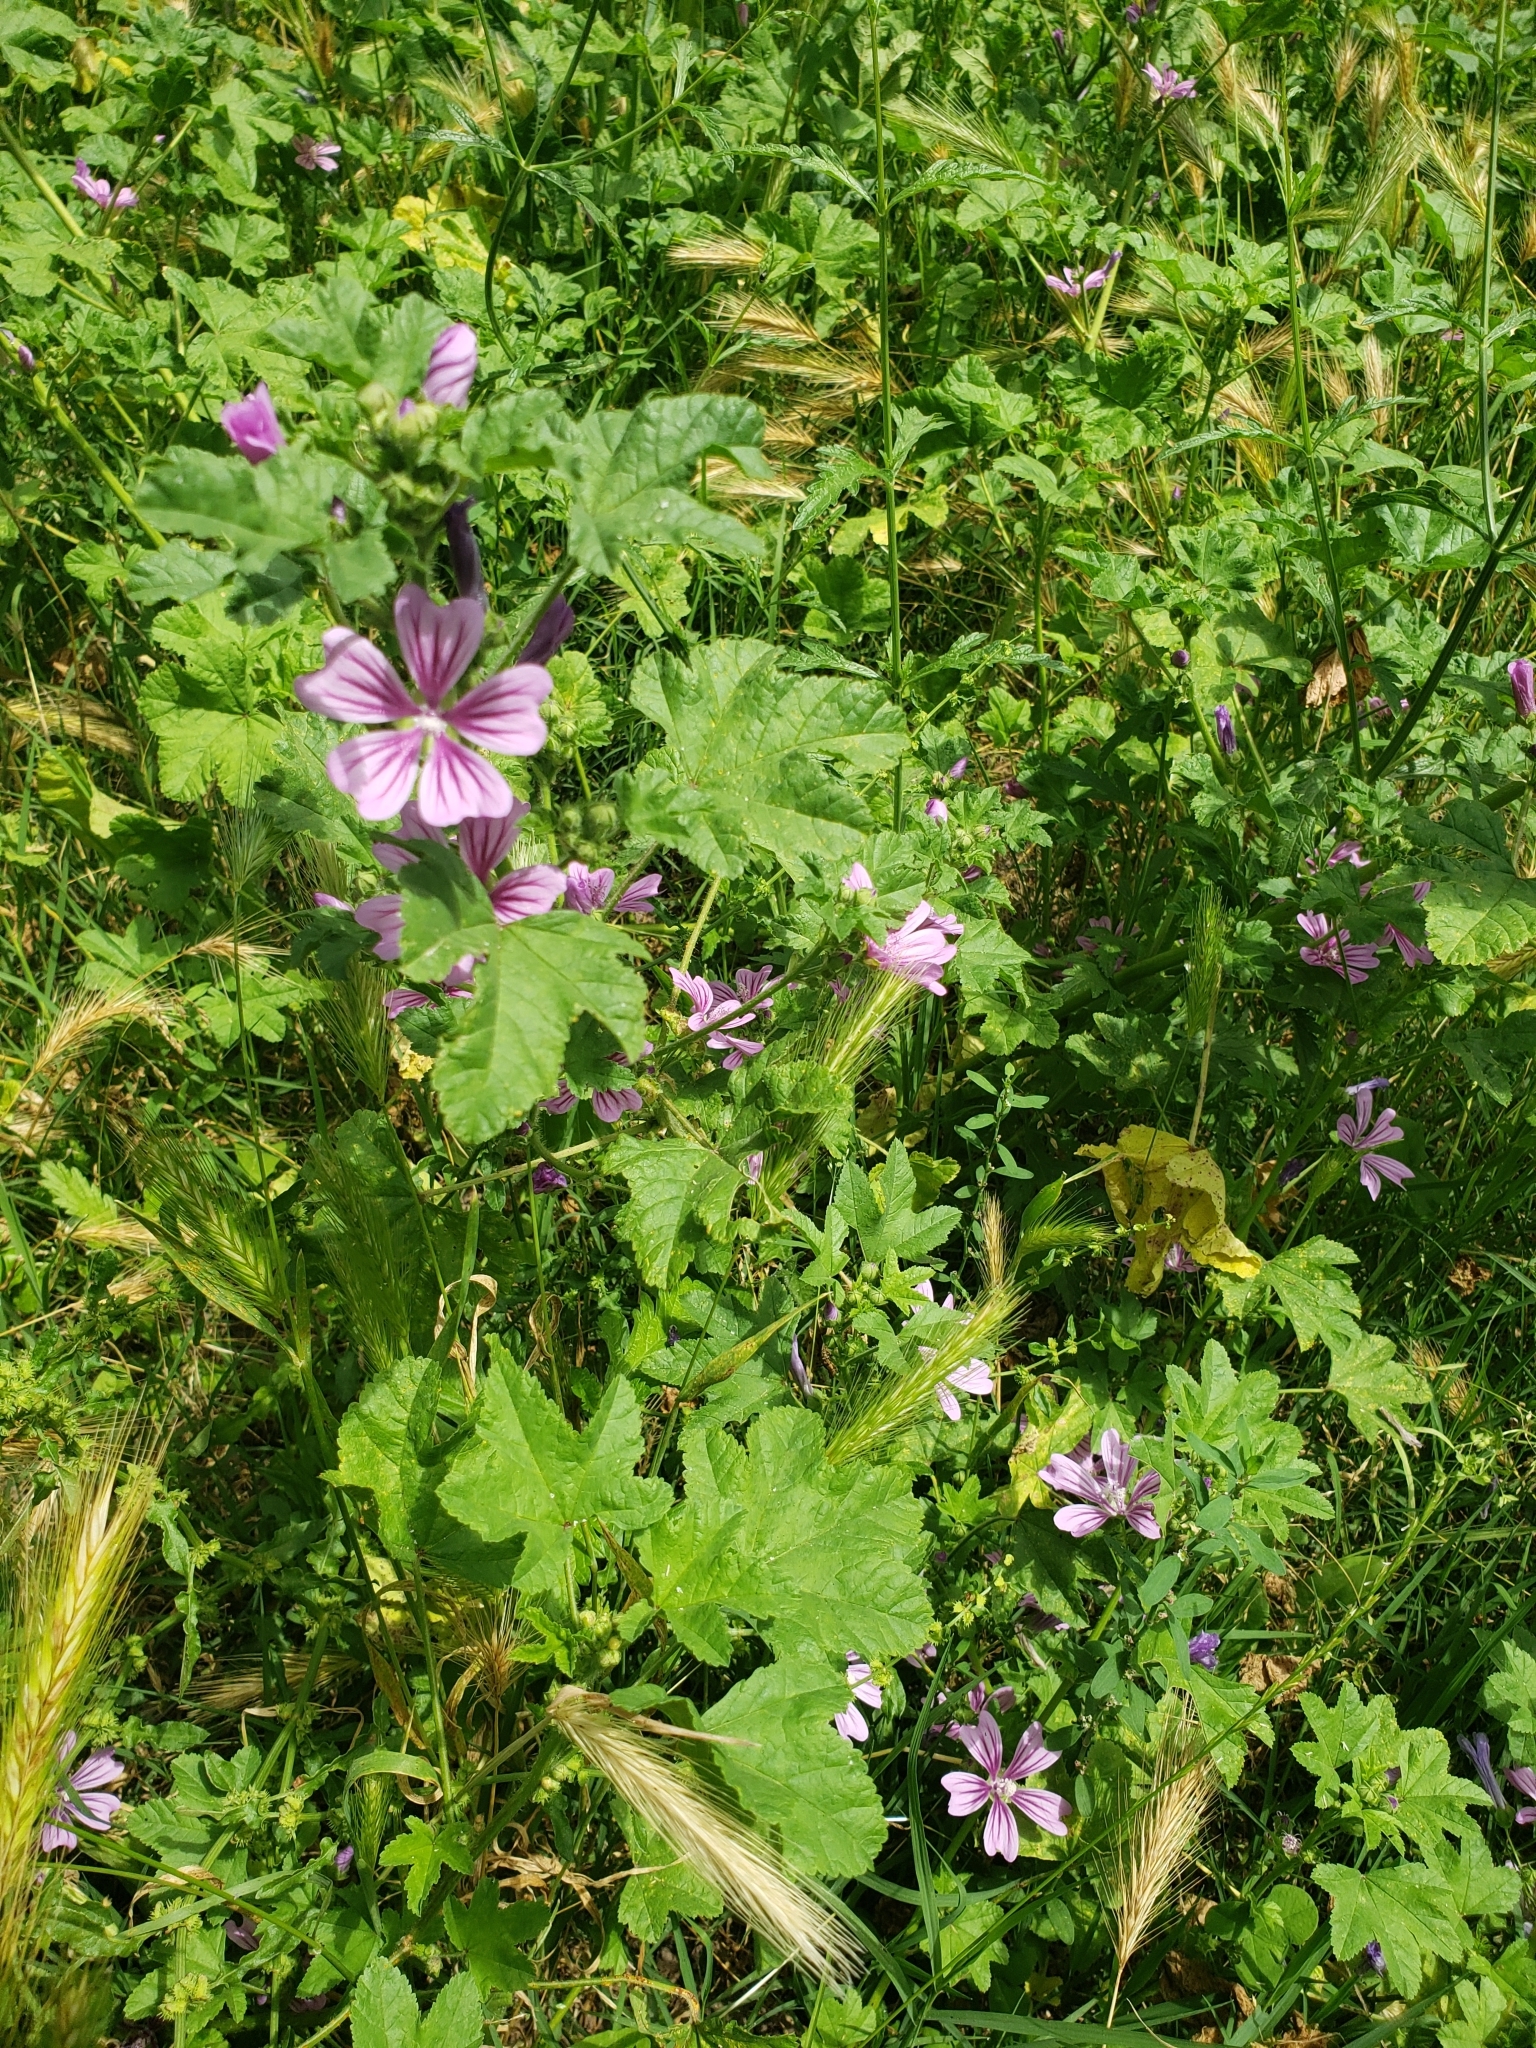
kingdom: Plantae
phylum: Tracheophyta
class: Magnoliopsida
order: Malvales
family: Malvaceae
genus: Malva
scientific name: Malva sylvestris
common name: Common mallow
